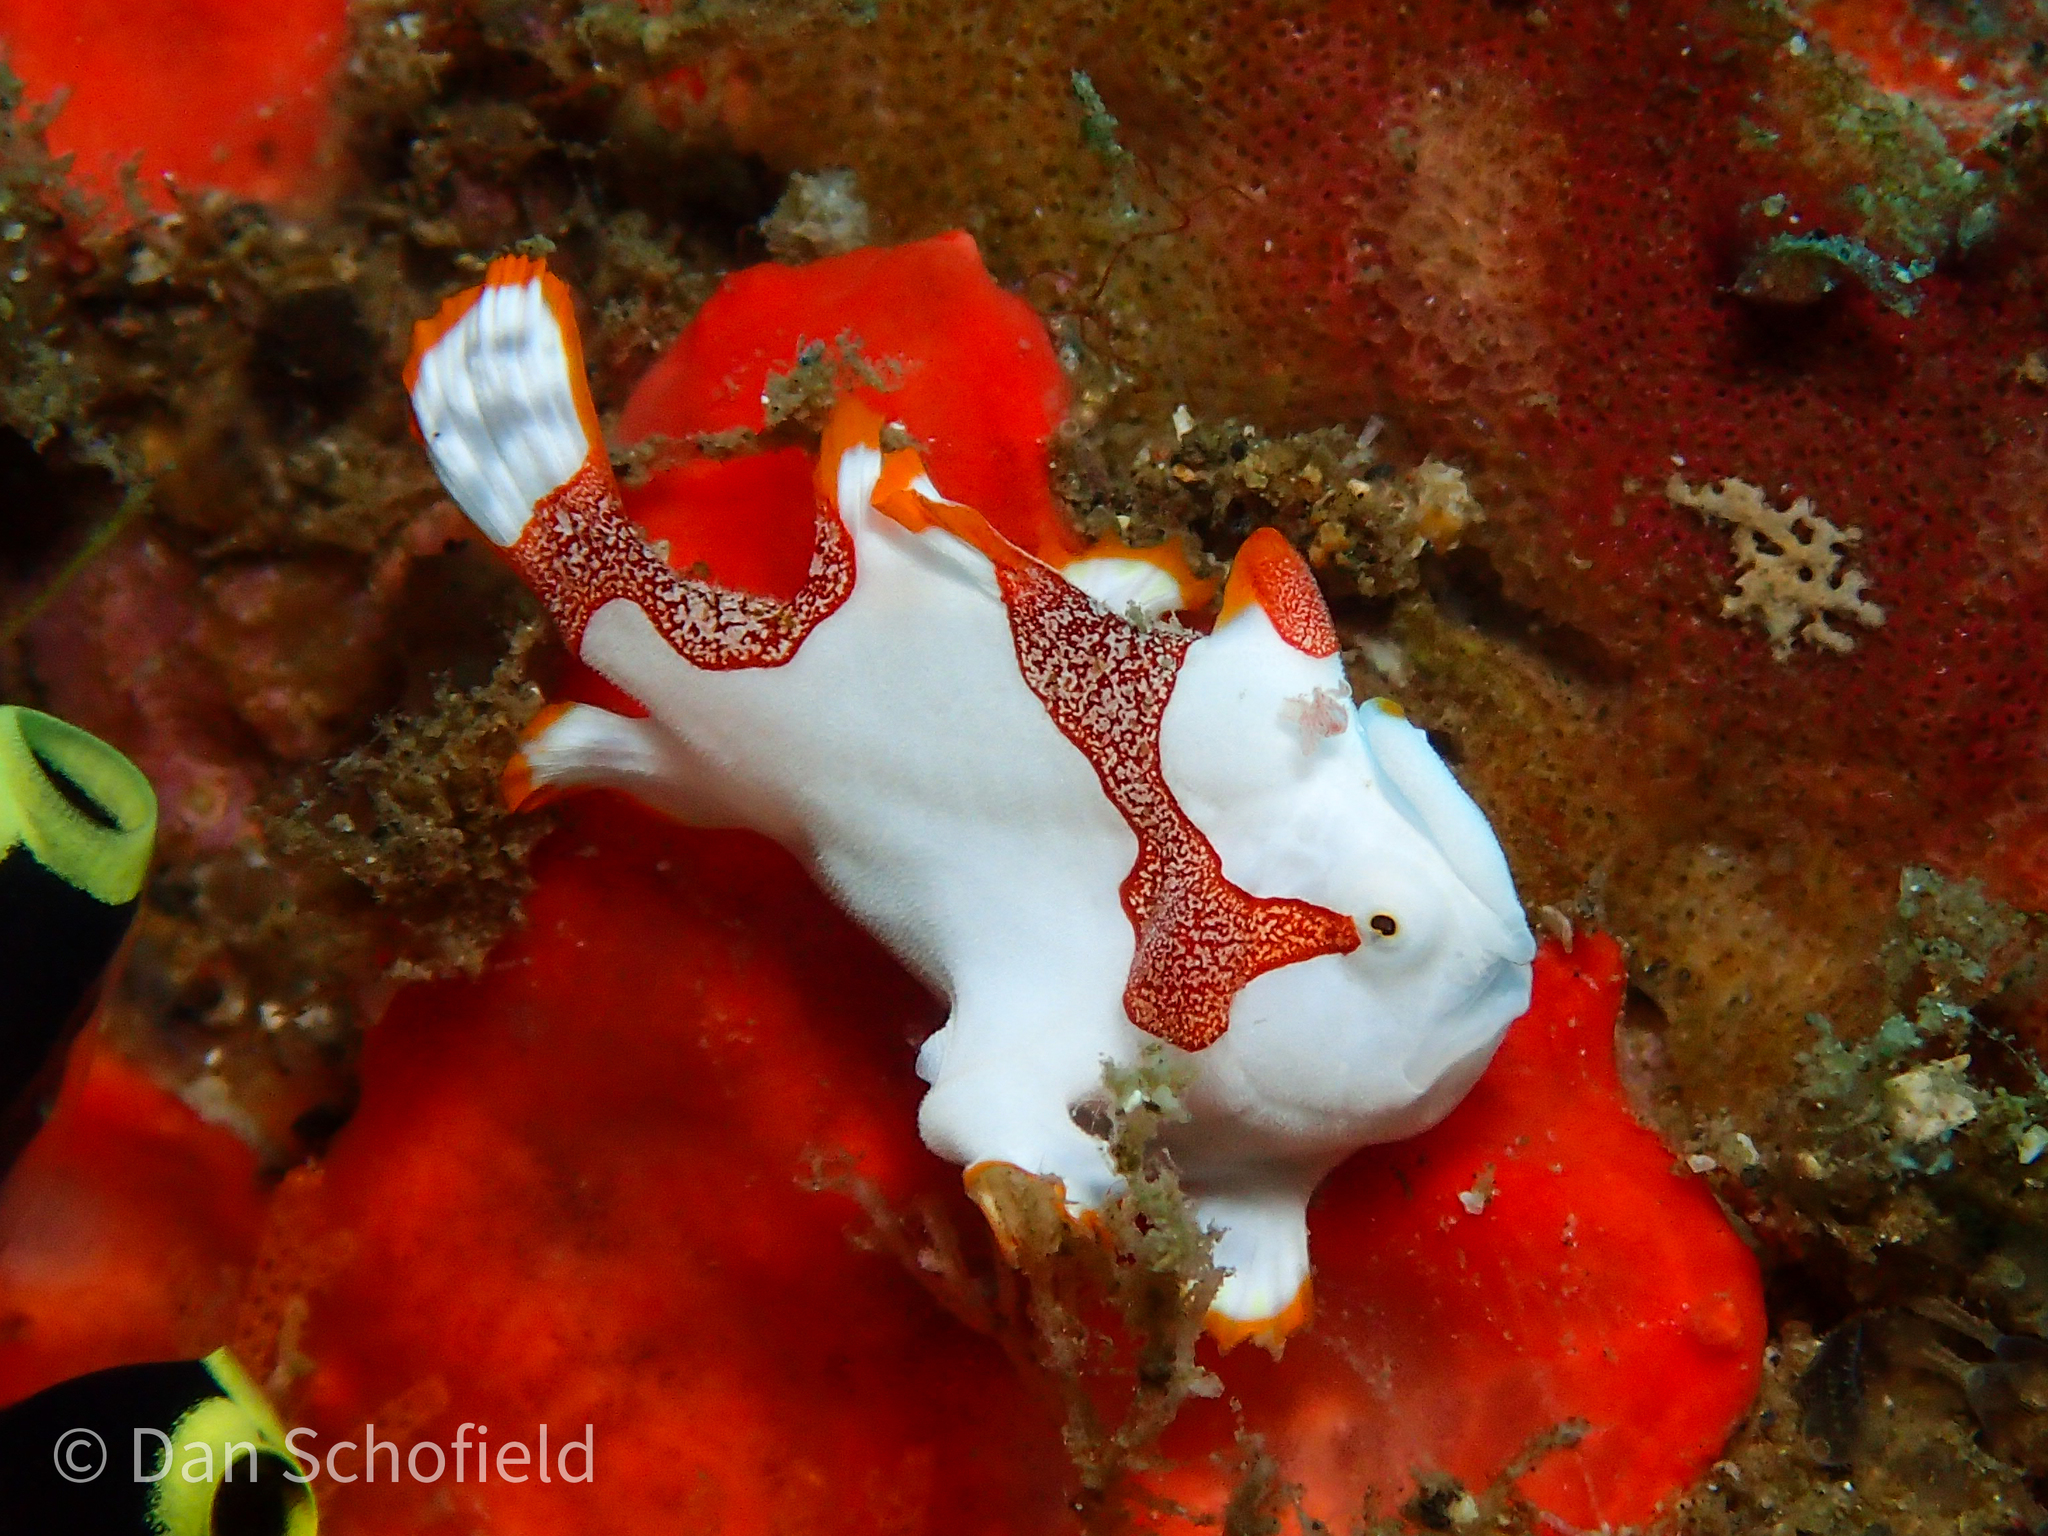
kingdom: Animalia
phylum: Chordata
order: Lophiiformes
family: Antennariidae
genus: Antennarius
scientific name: Antennarius maculatus
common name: Warty frogfish
